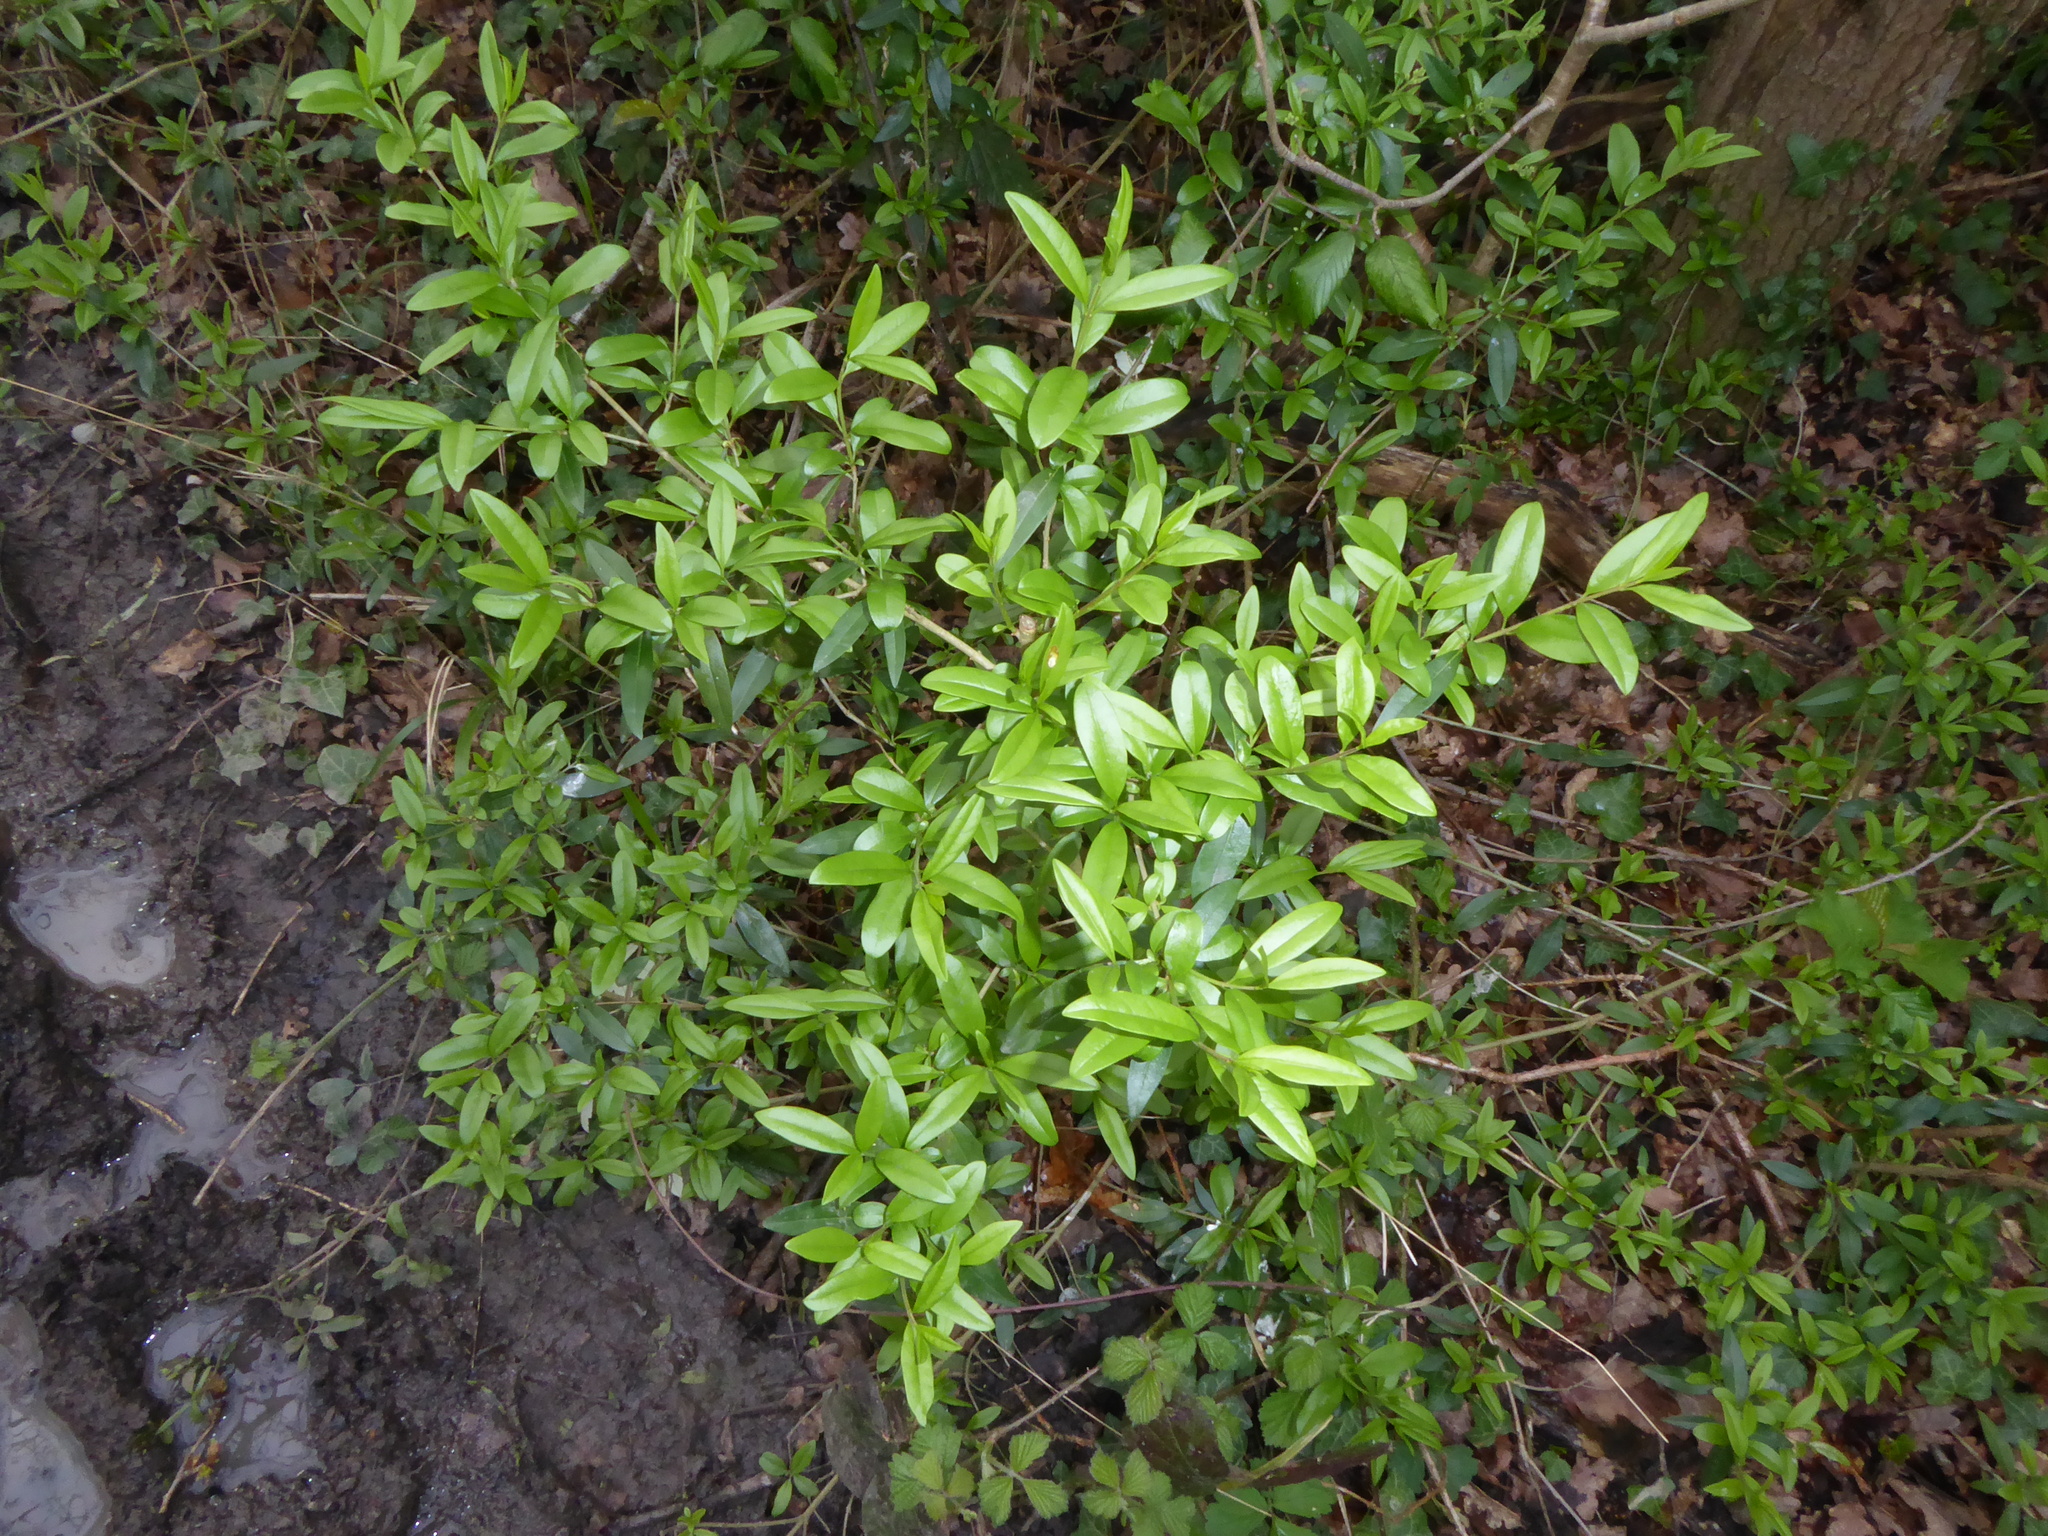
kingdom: Plantae
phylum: Tracheophyta
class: Magnoliopsida
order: Lamiales
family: Oleaceae
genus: Ligustrum
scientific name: Ligustrum vulgare
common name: Wild privet
